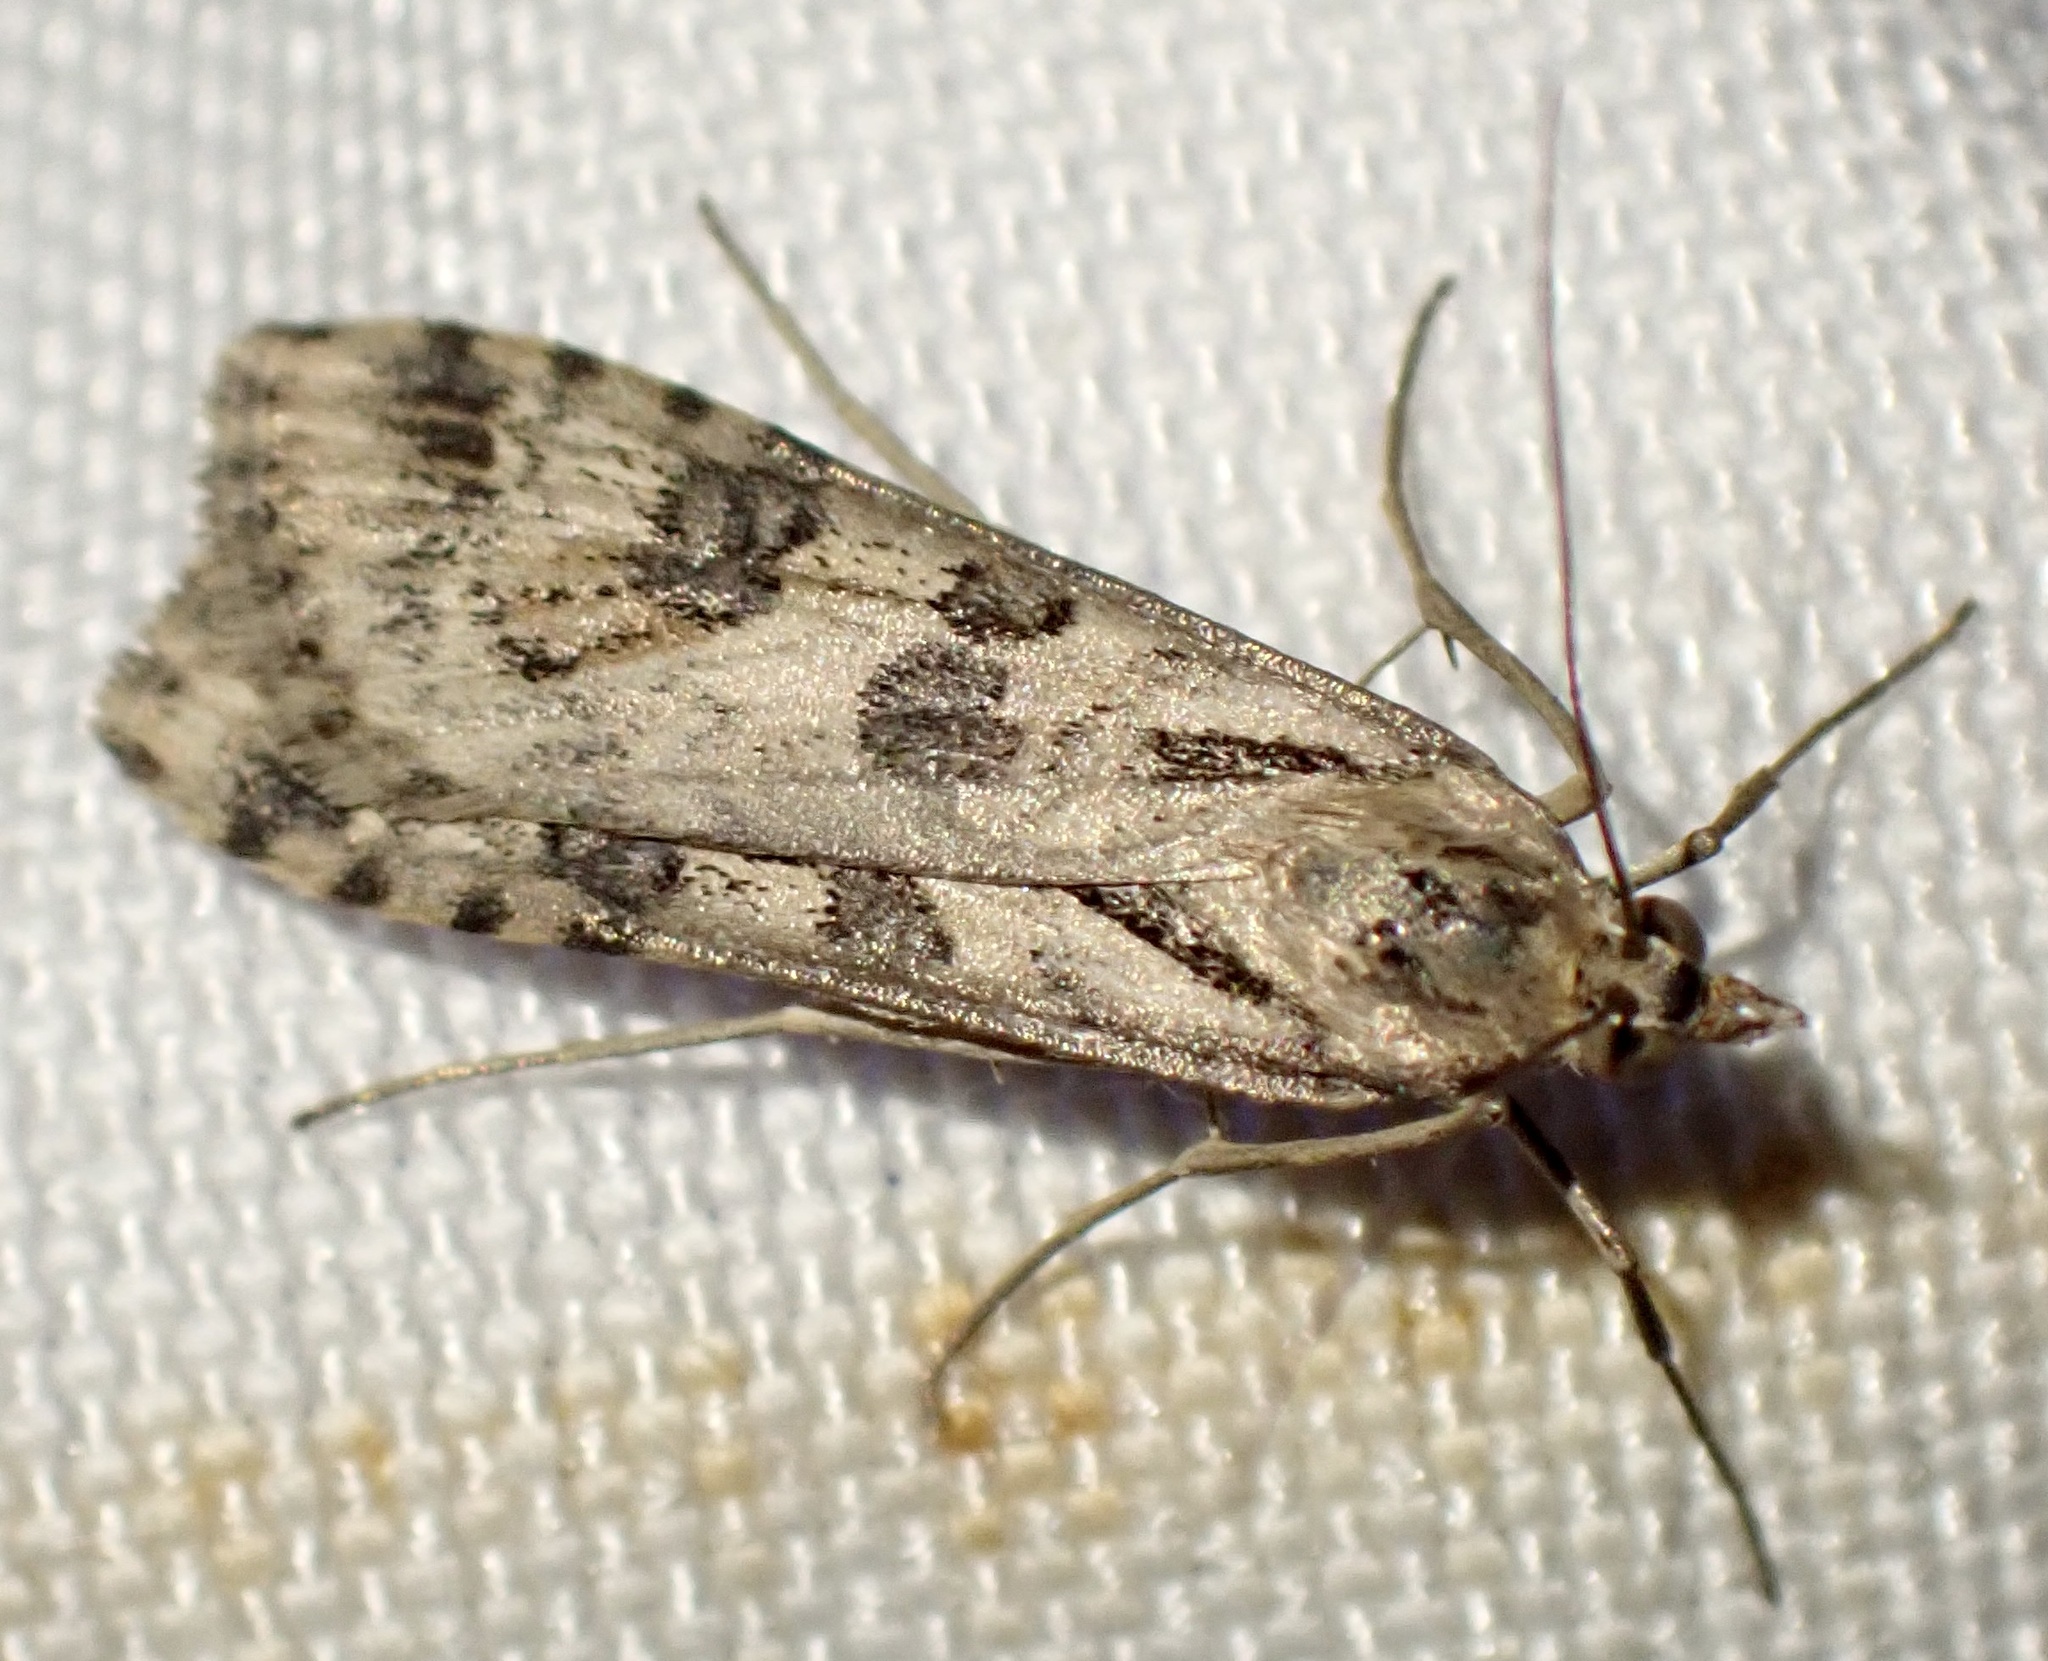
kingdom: Animalia
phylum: Arthropoda
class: Insecta
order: Lepidoptera
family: Crambidae
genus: Nomophila
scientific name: Nomophila noctuella
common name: Rush veneer
